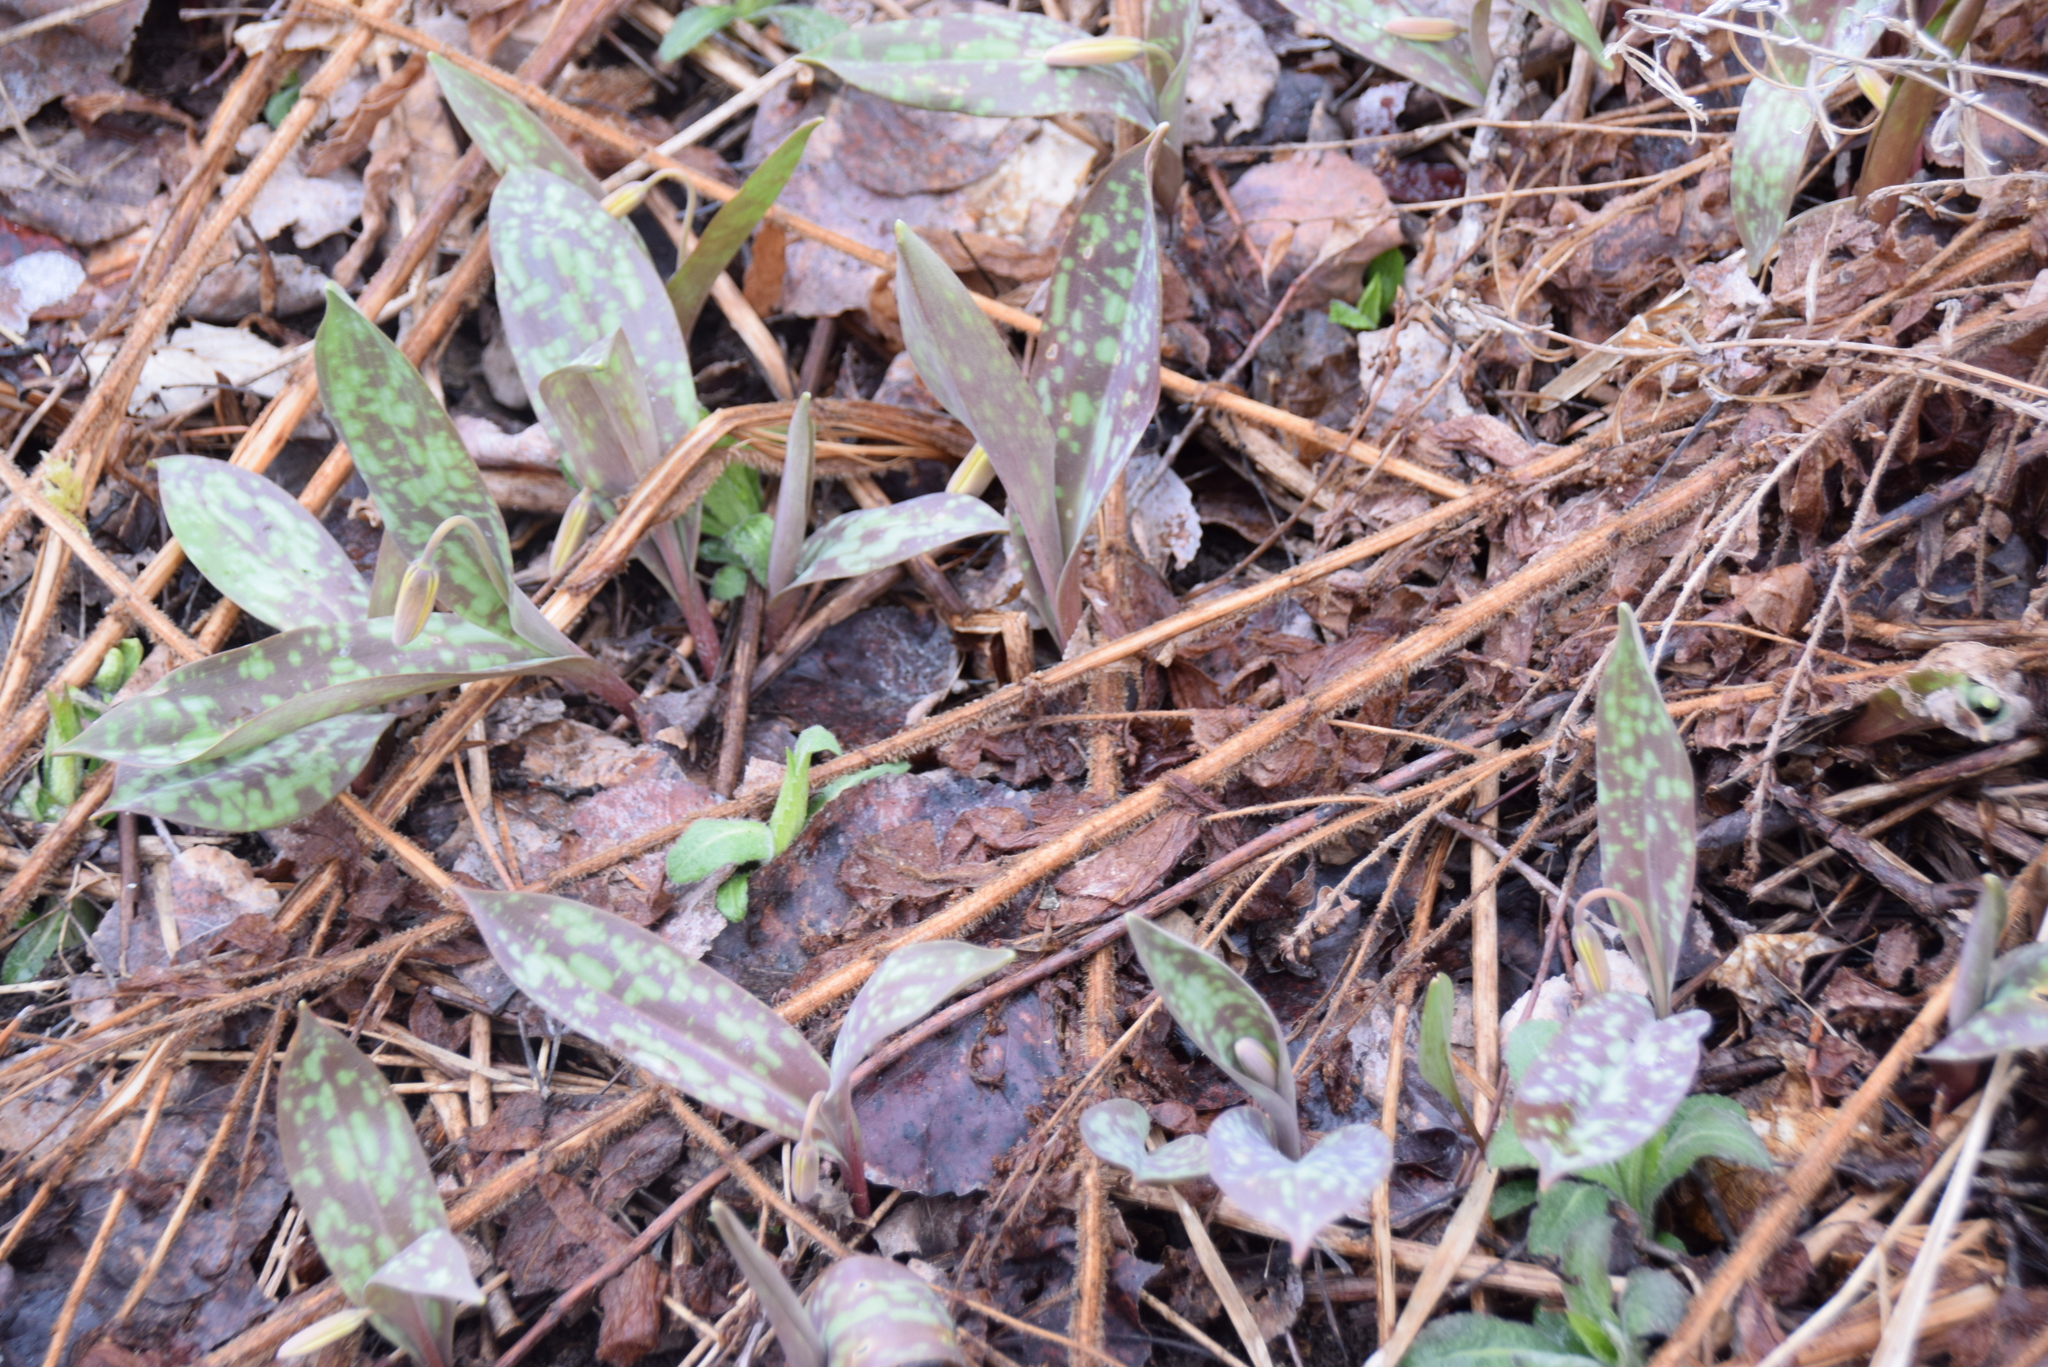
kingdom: Plantae
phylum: Tracheophyta
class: Liliopsida
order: Liliales
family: Liliaceae
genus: Erythronium
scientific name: Erythronium americanum
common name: Yellow adder's-tongue
